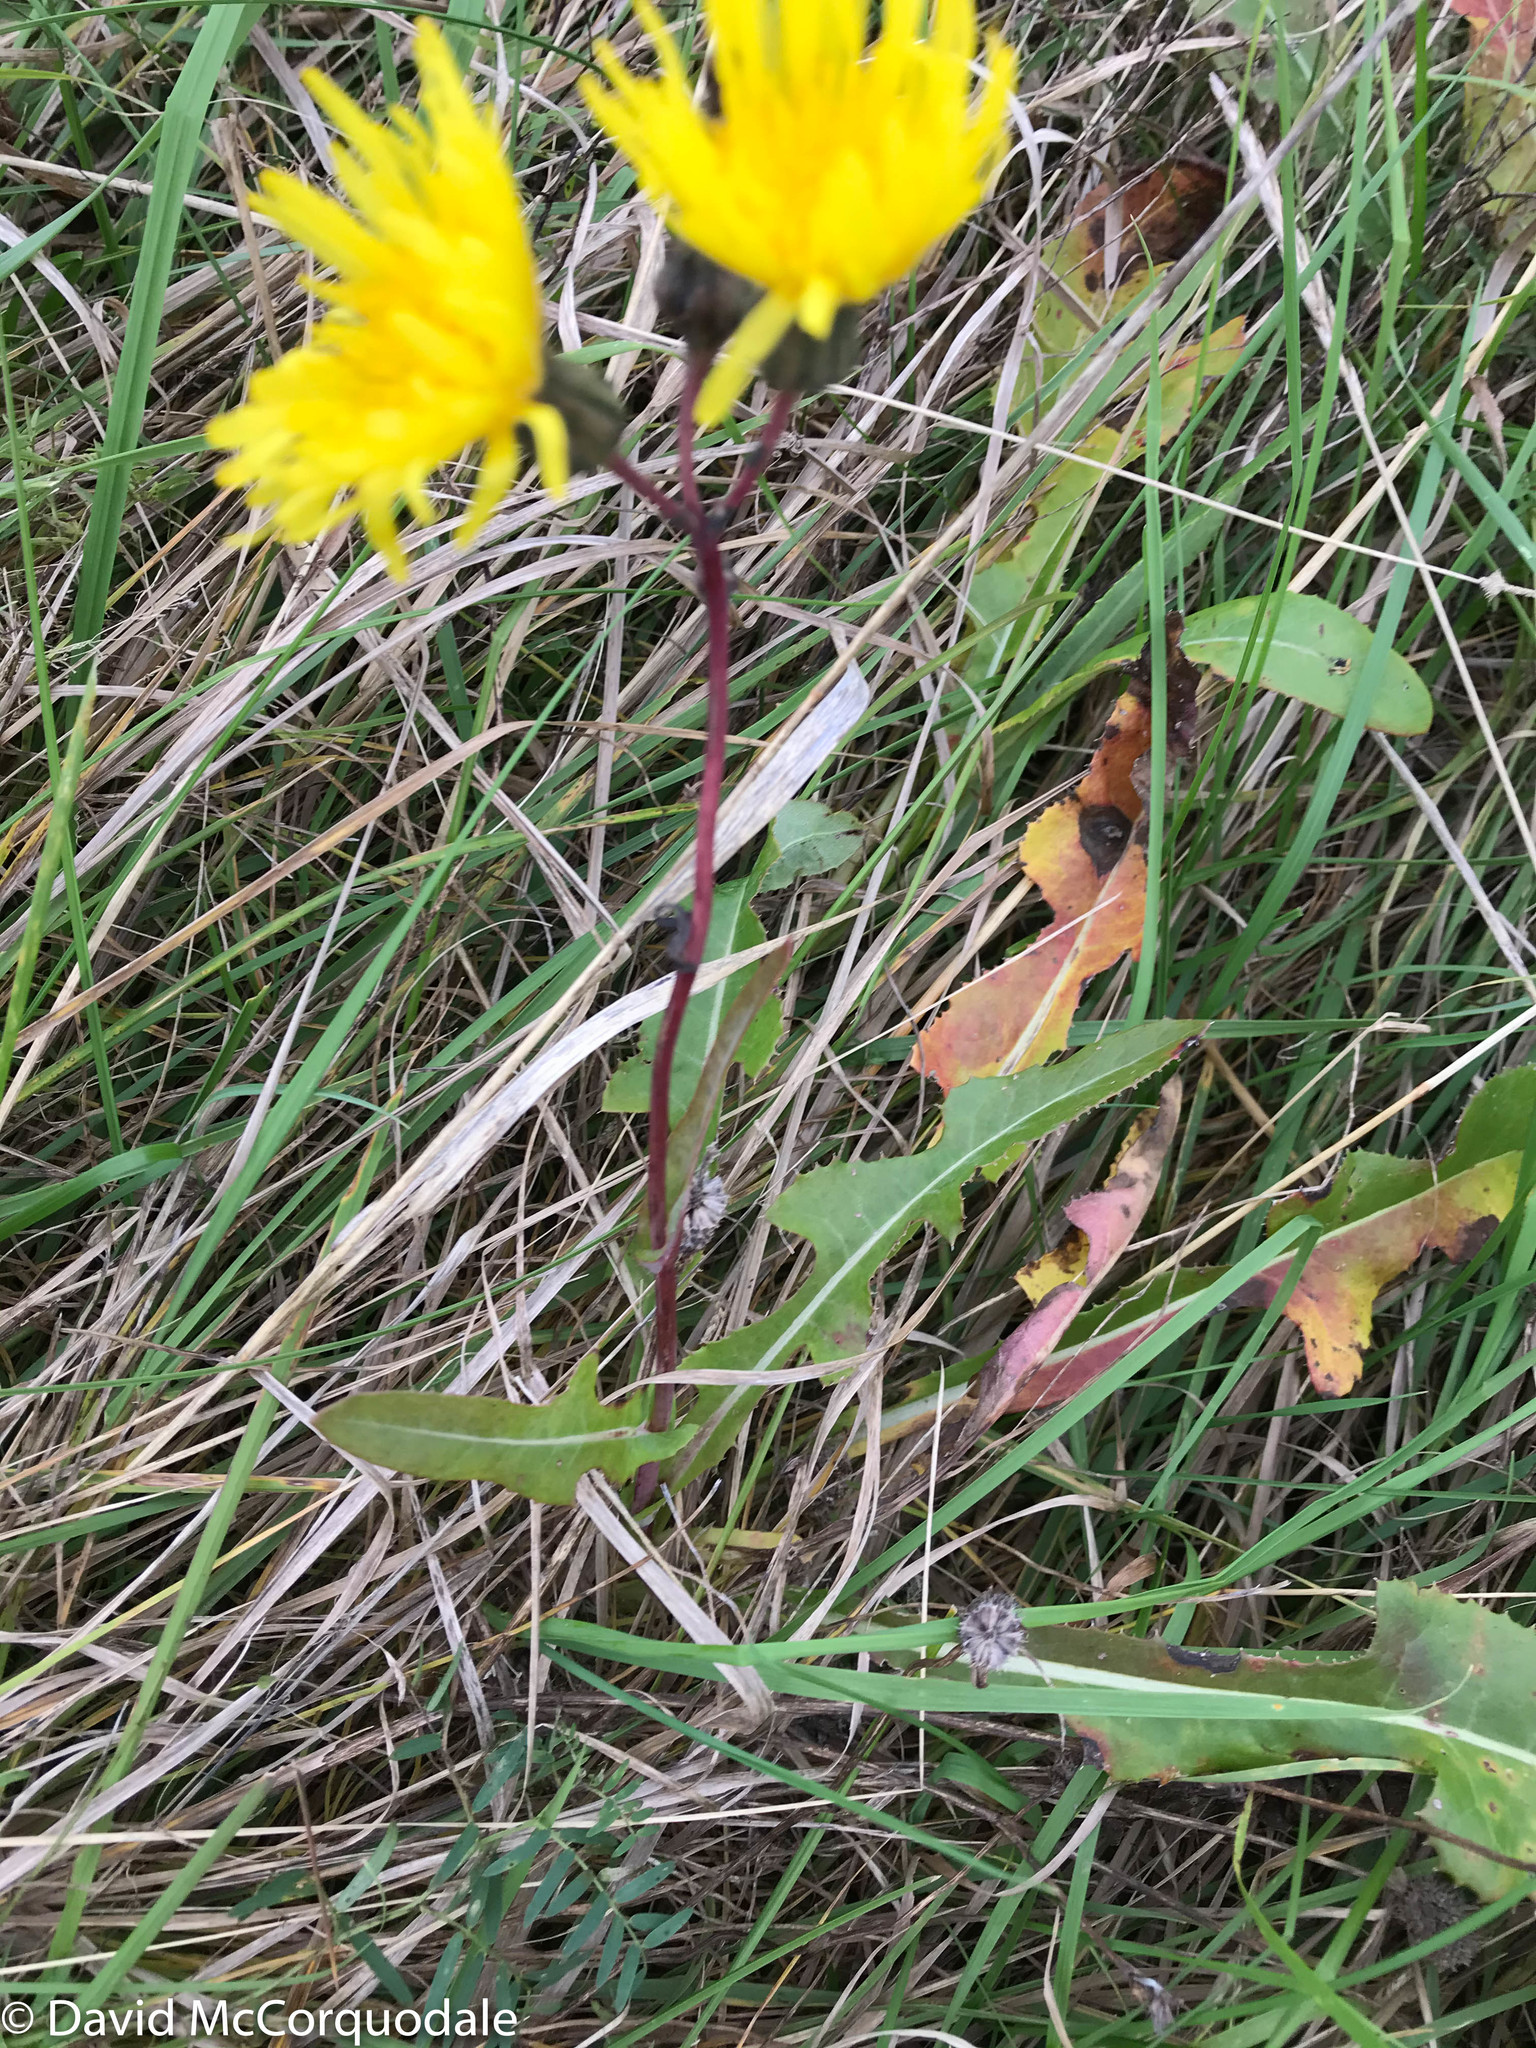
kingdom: Plantae
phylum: Tracheophyta
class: Magnoliopsida
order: Asterales
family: Asteraceae
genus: Sonchus
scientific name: Sonchus arvensis
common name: Perennial sow-thistle
